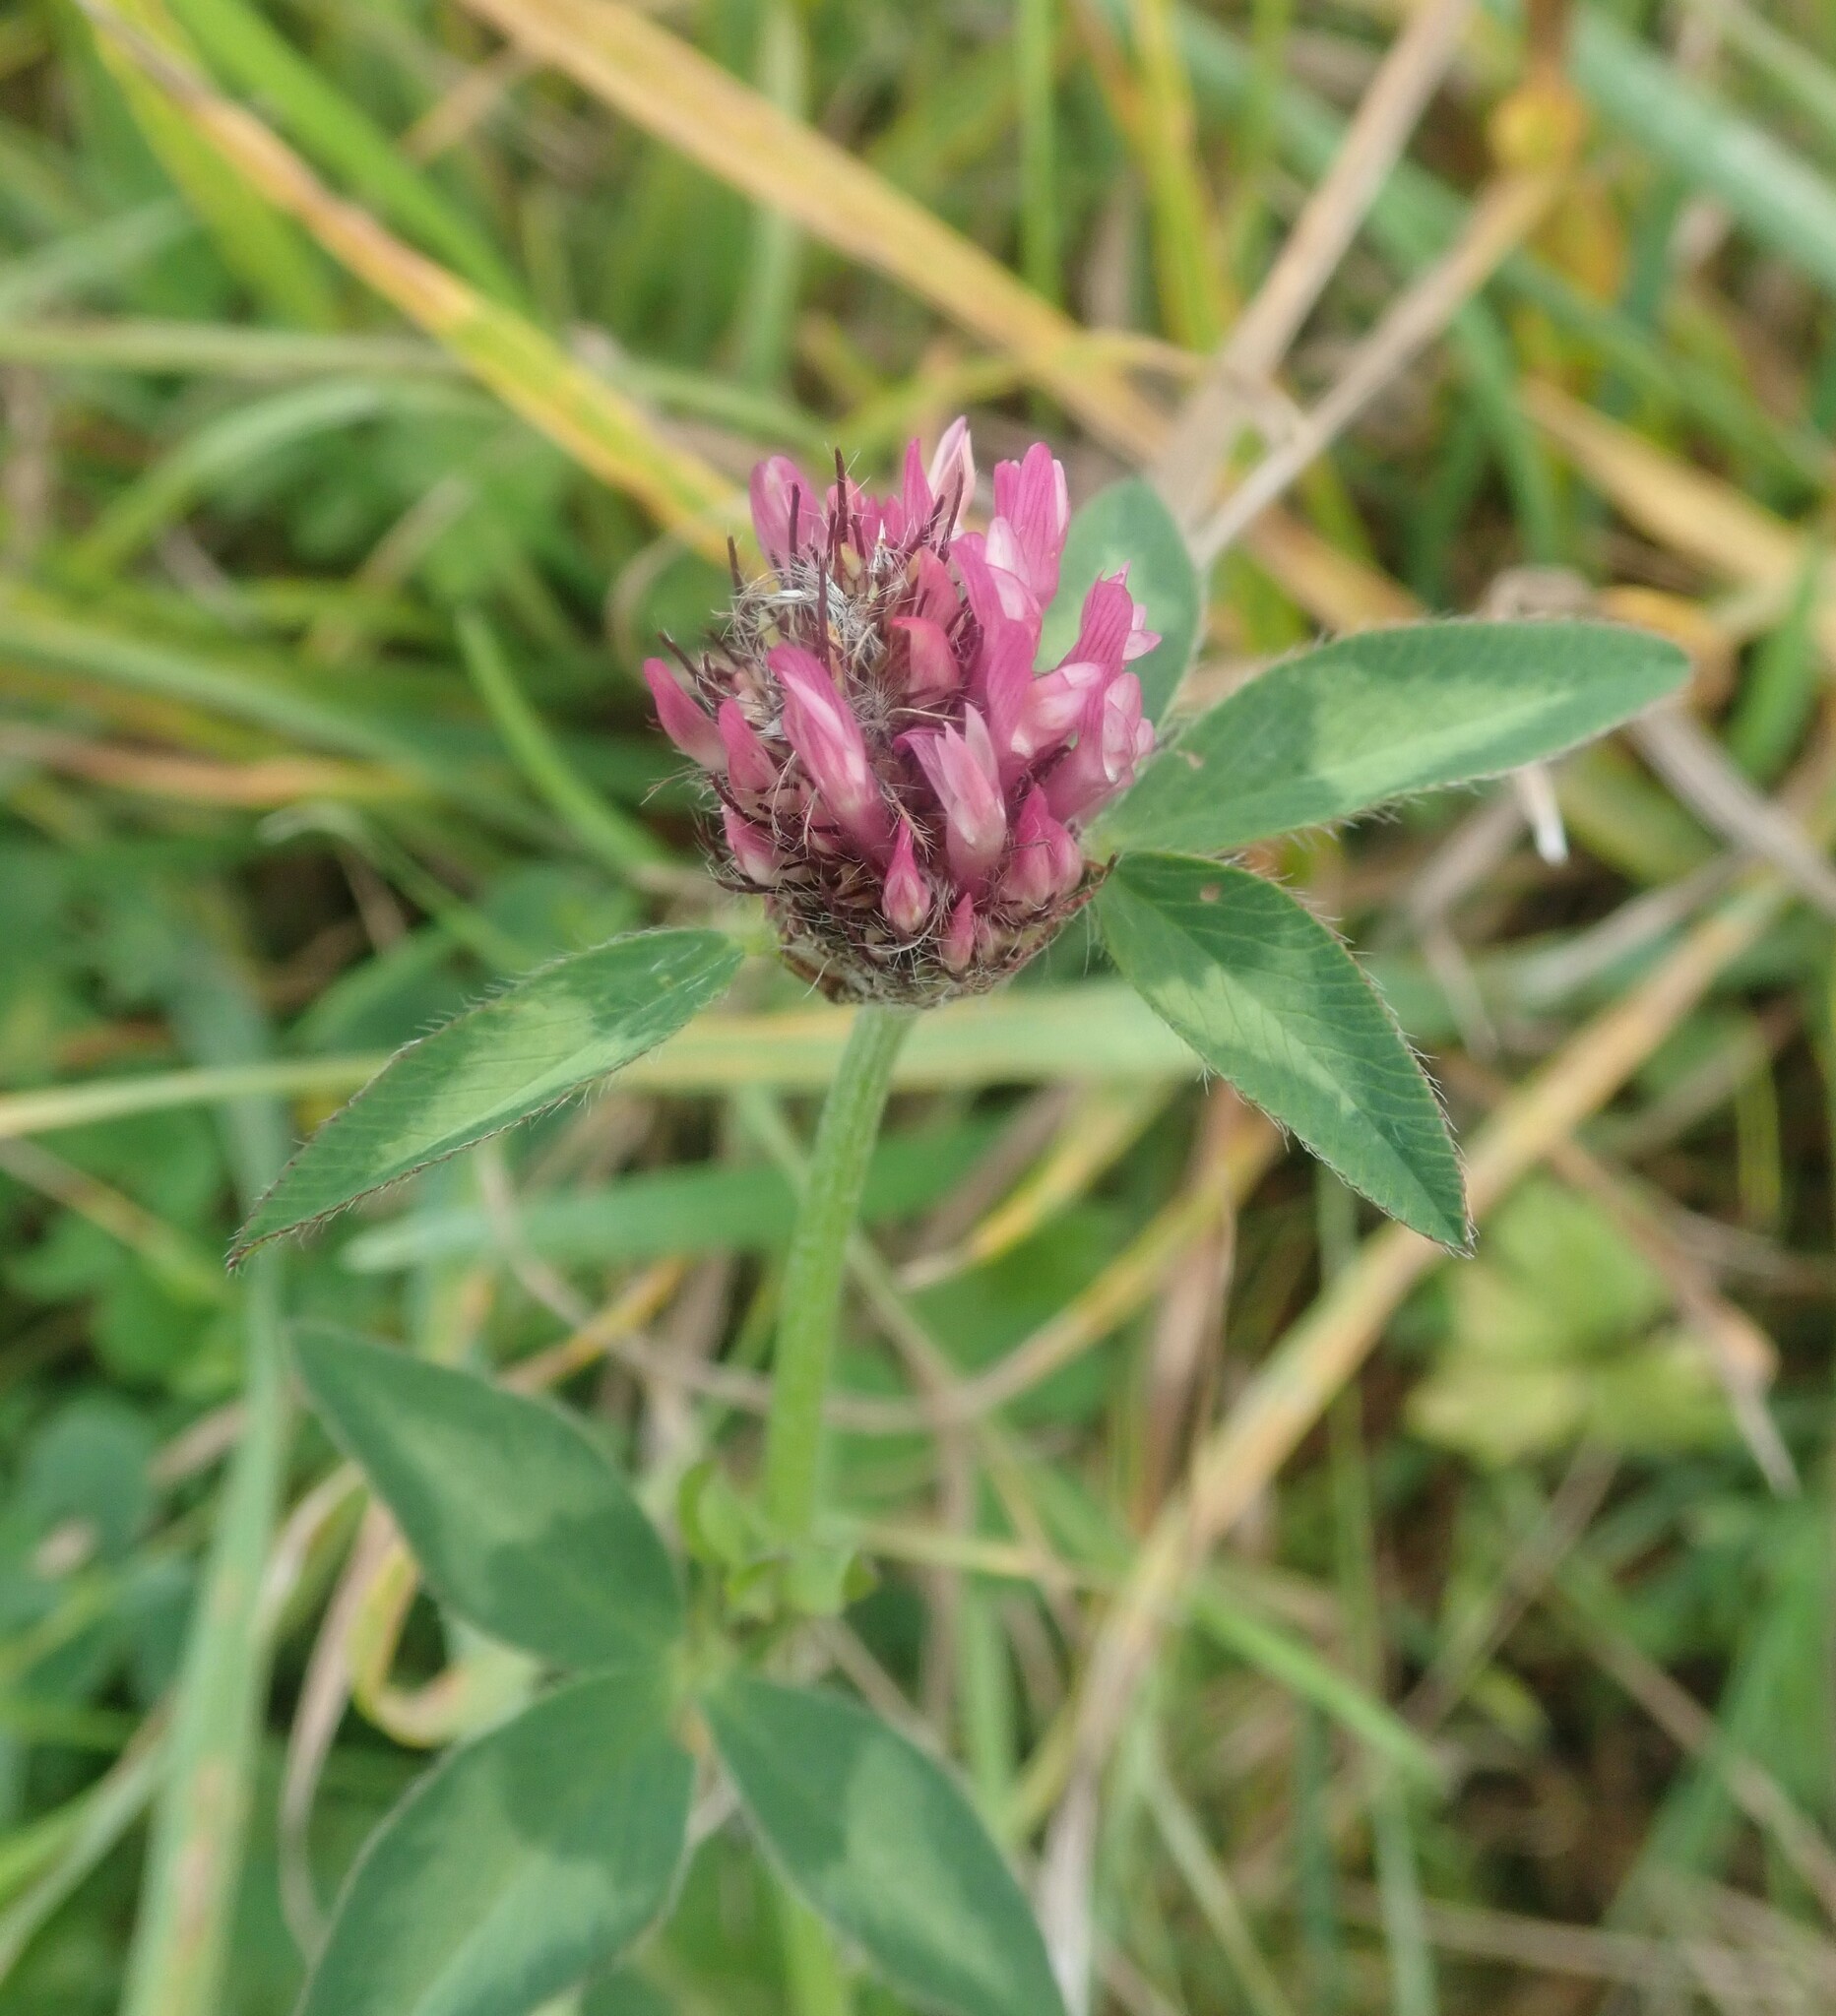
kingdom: Plantae
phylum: Tracheophyta
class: Magnoliopsida
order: Fabales
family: Fabaceae
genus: Trifolium
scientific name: Trifolium pratense
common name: Red clover
